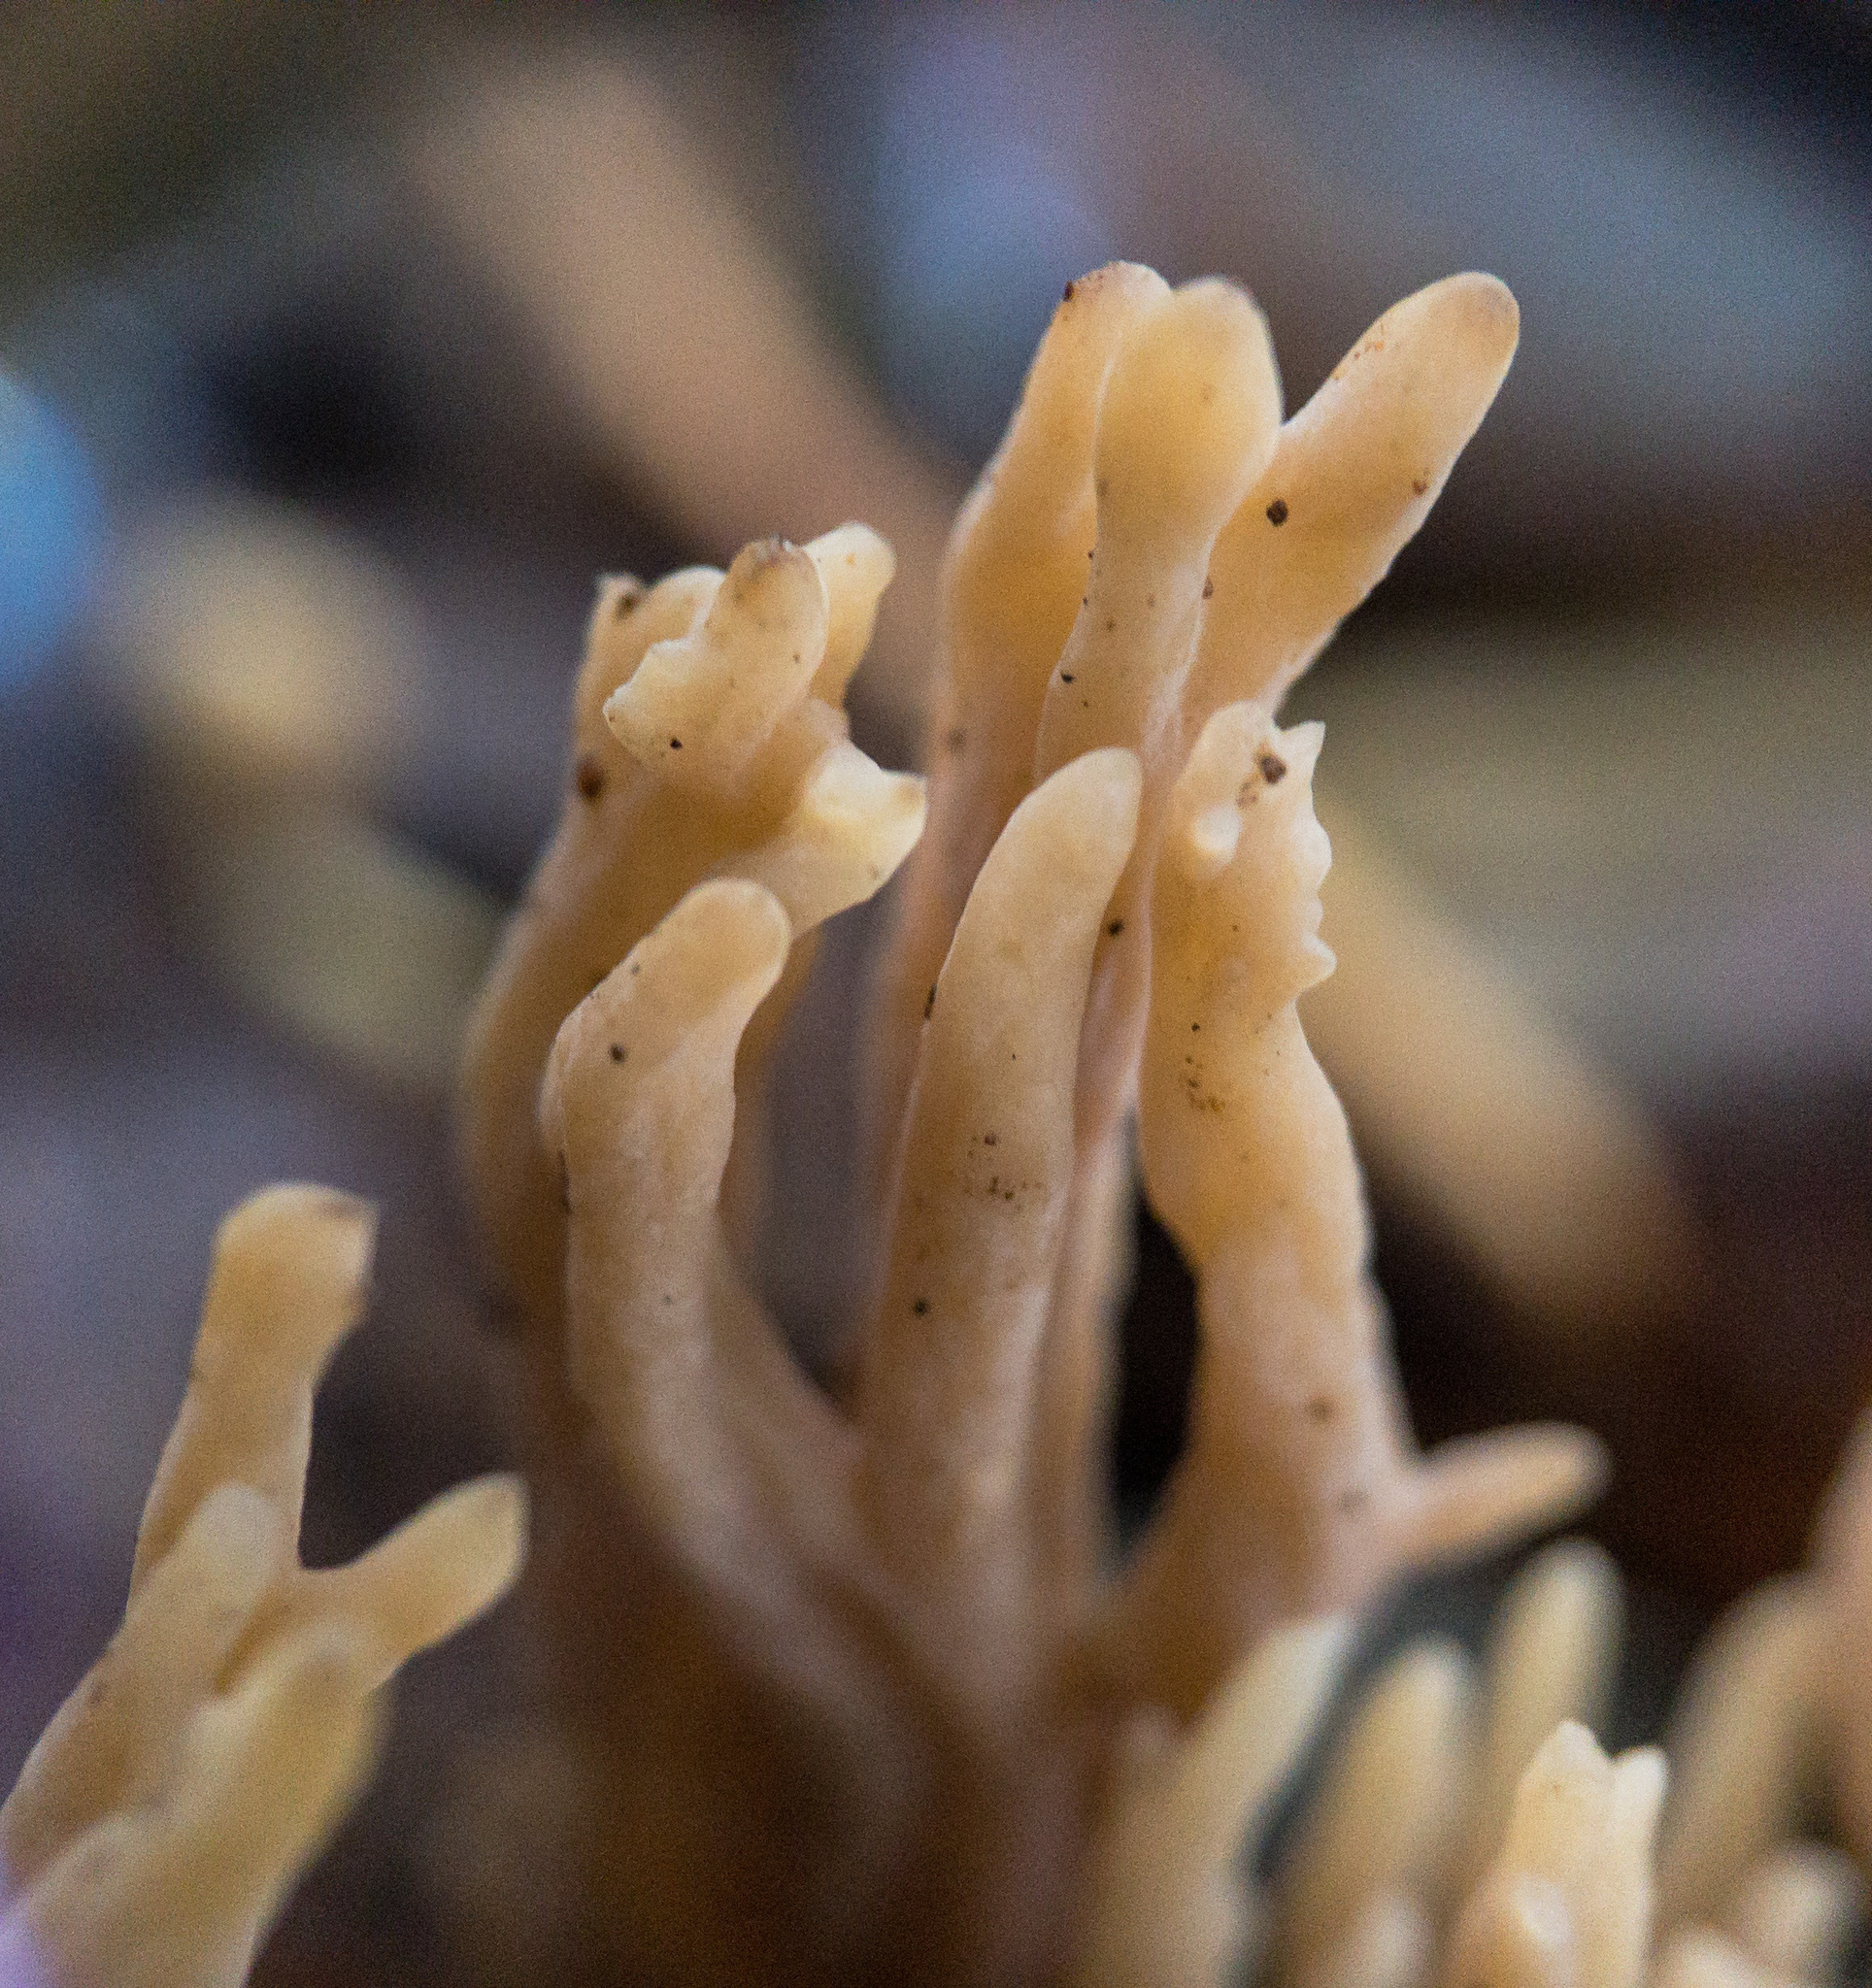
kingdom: Fungi
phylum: Basidiomycota
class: Agaricomycetes
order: Cantharellales
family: Hydnaceae
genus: Clavulina
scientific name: Clavulina cinerea
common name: Grey coral
